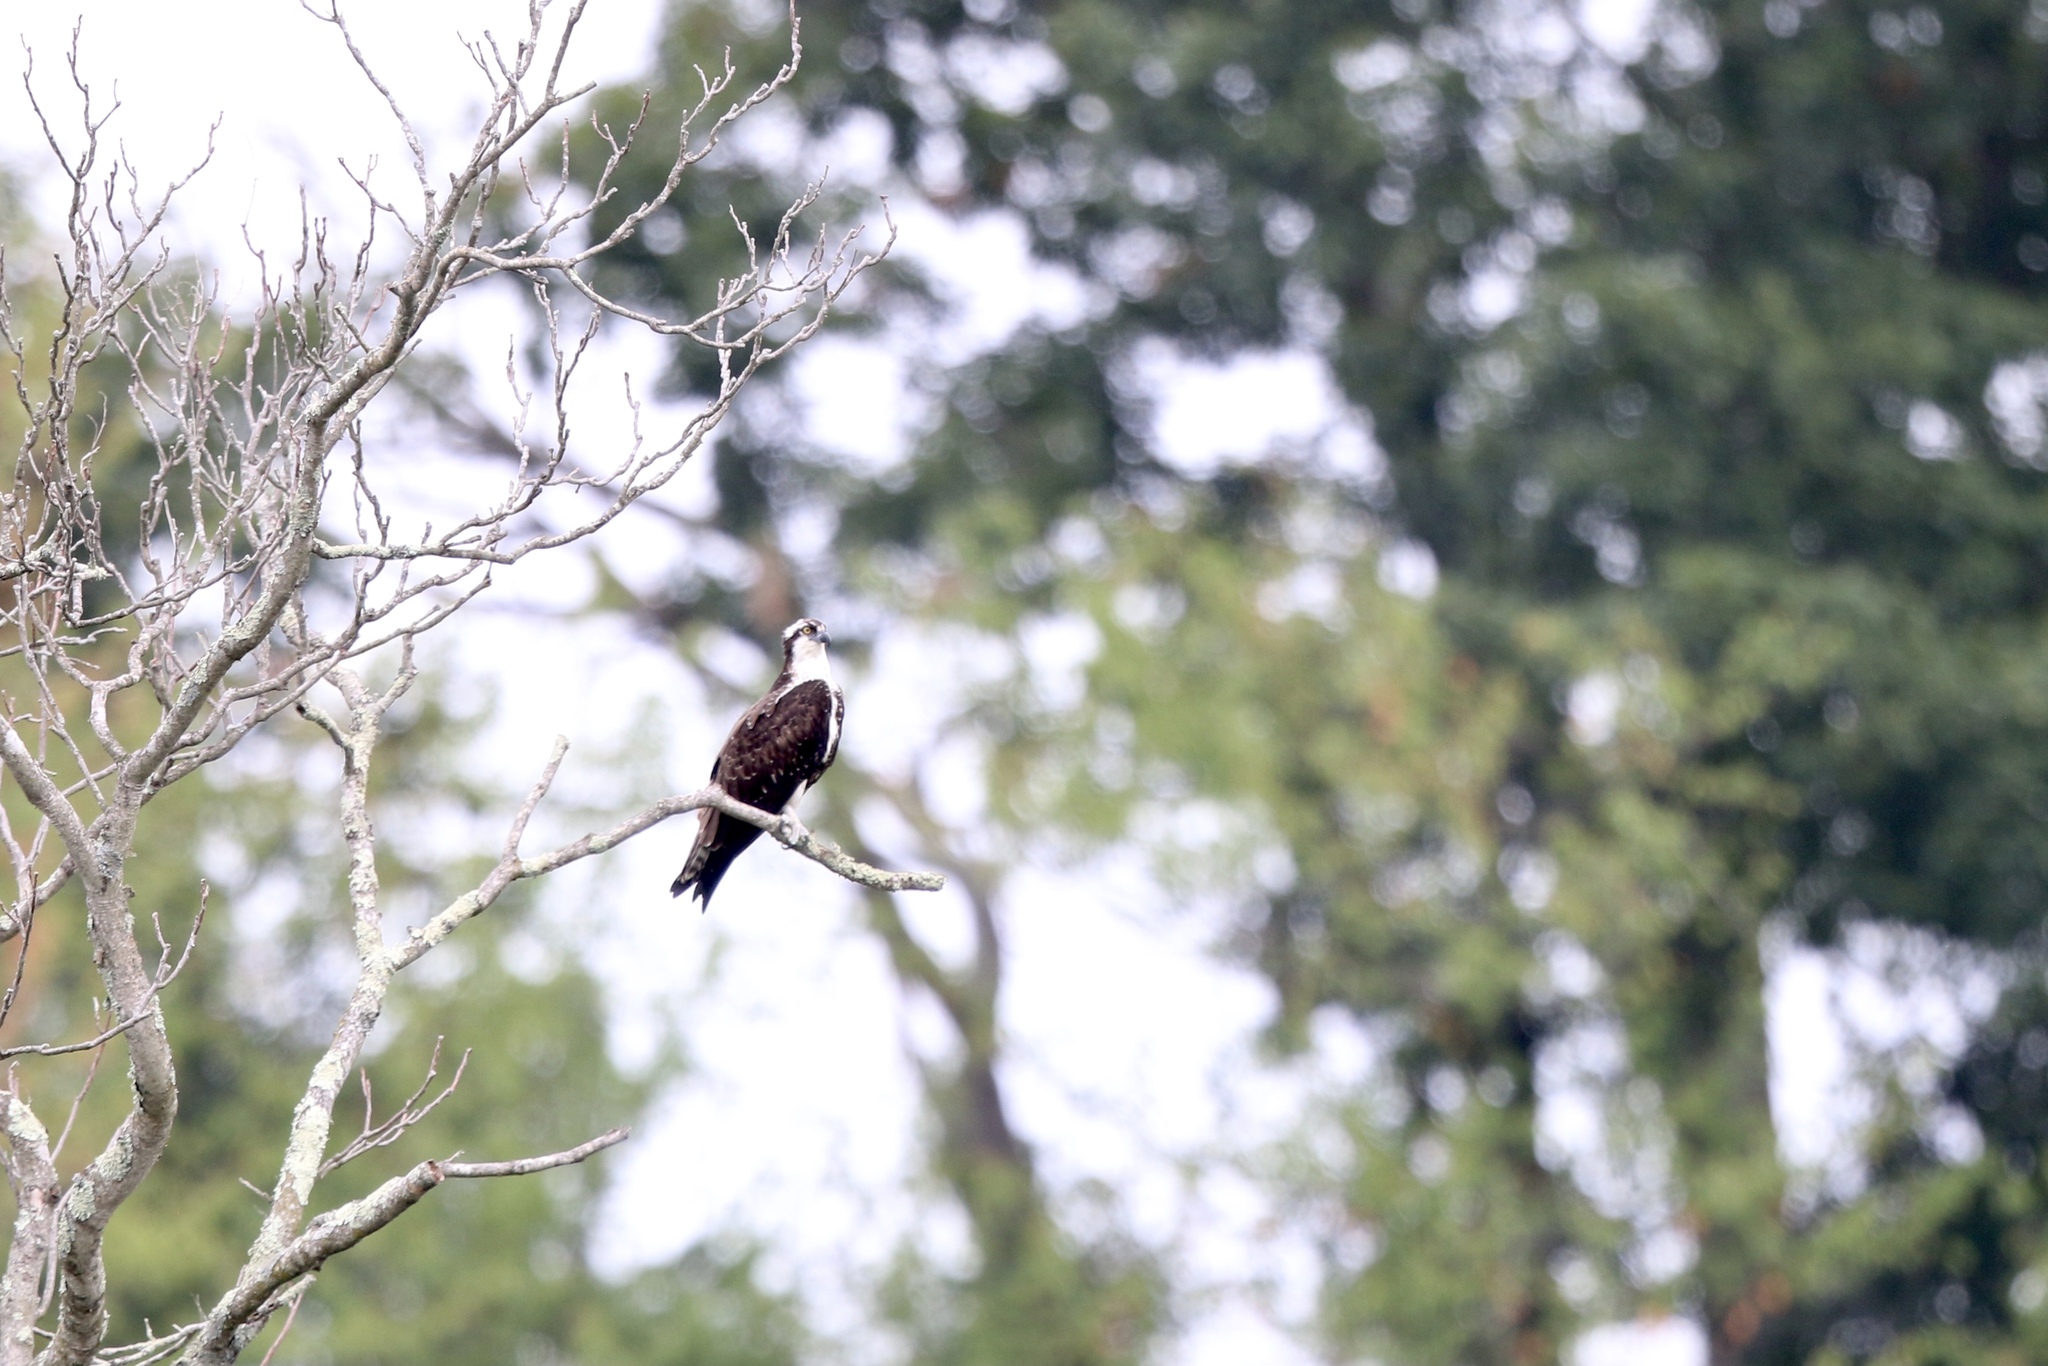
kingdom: Animalia
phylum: Chordata
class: Aves
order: Accipitriformes
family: Pandionidae
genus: Pandion
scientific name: Pandion haliaetus
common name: Osprey
